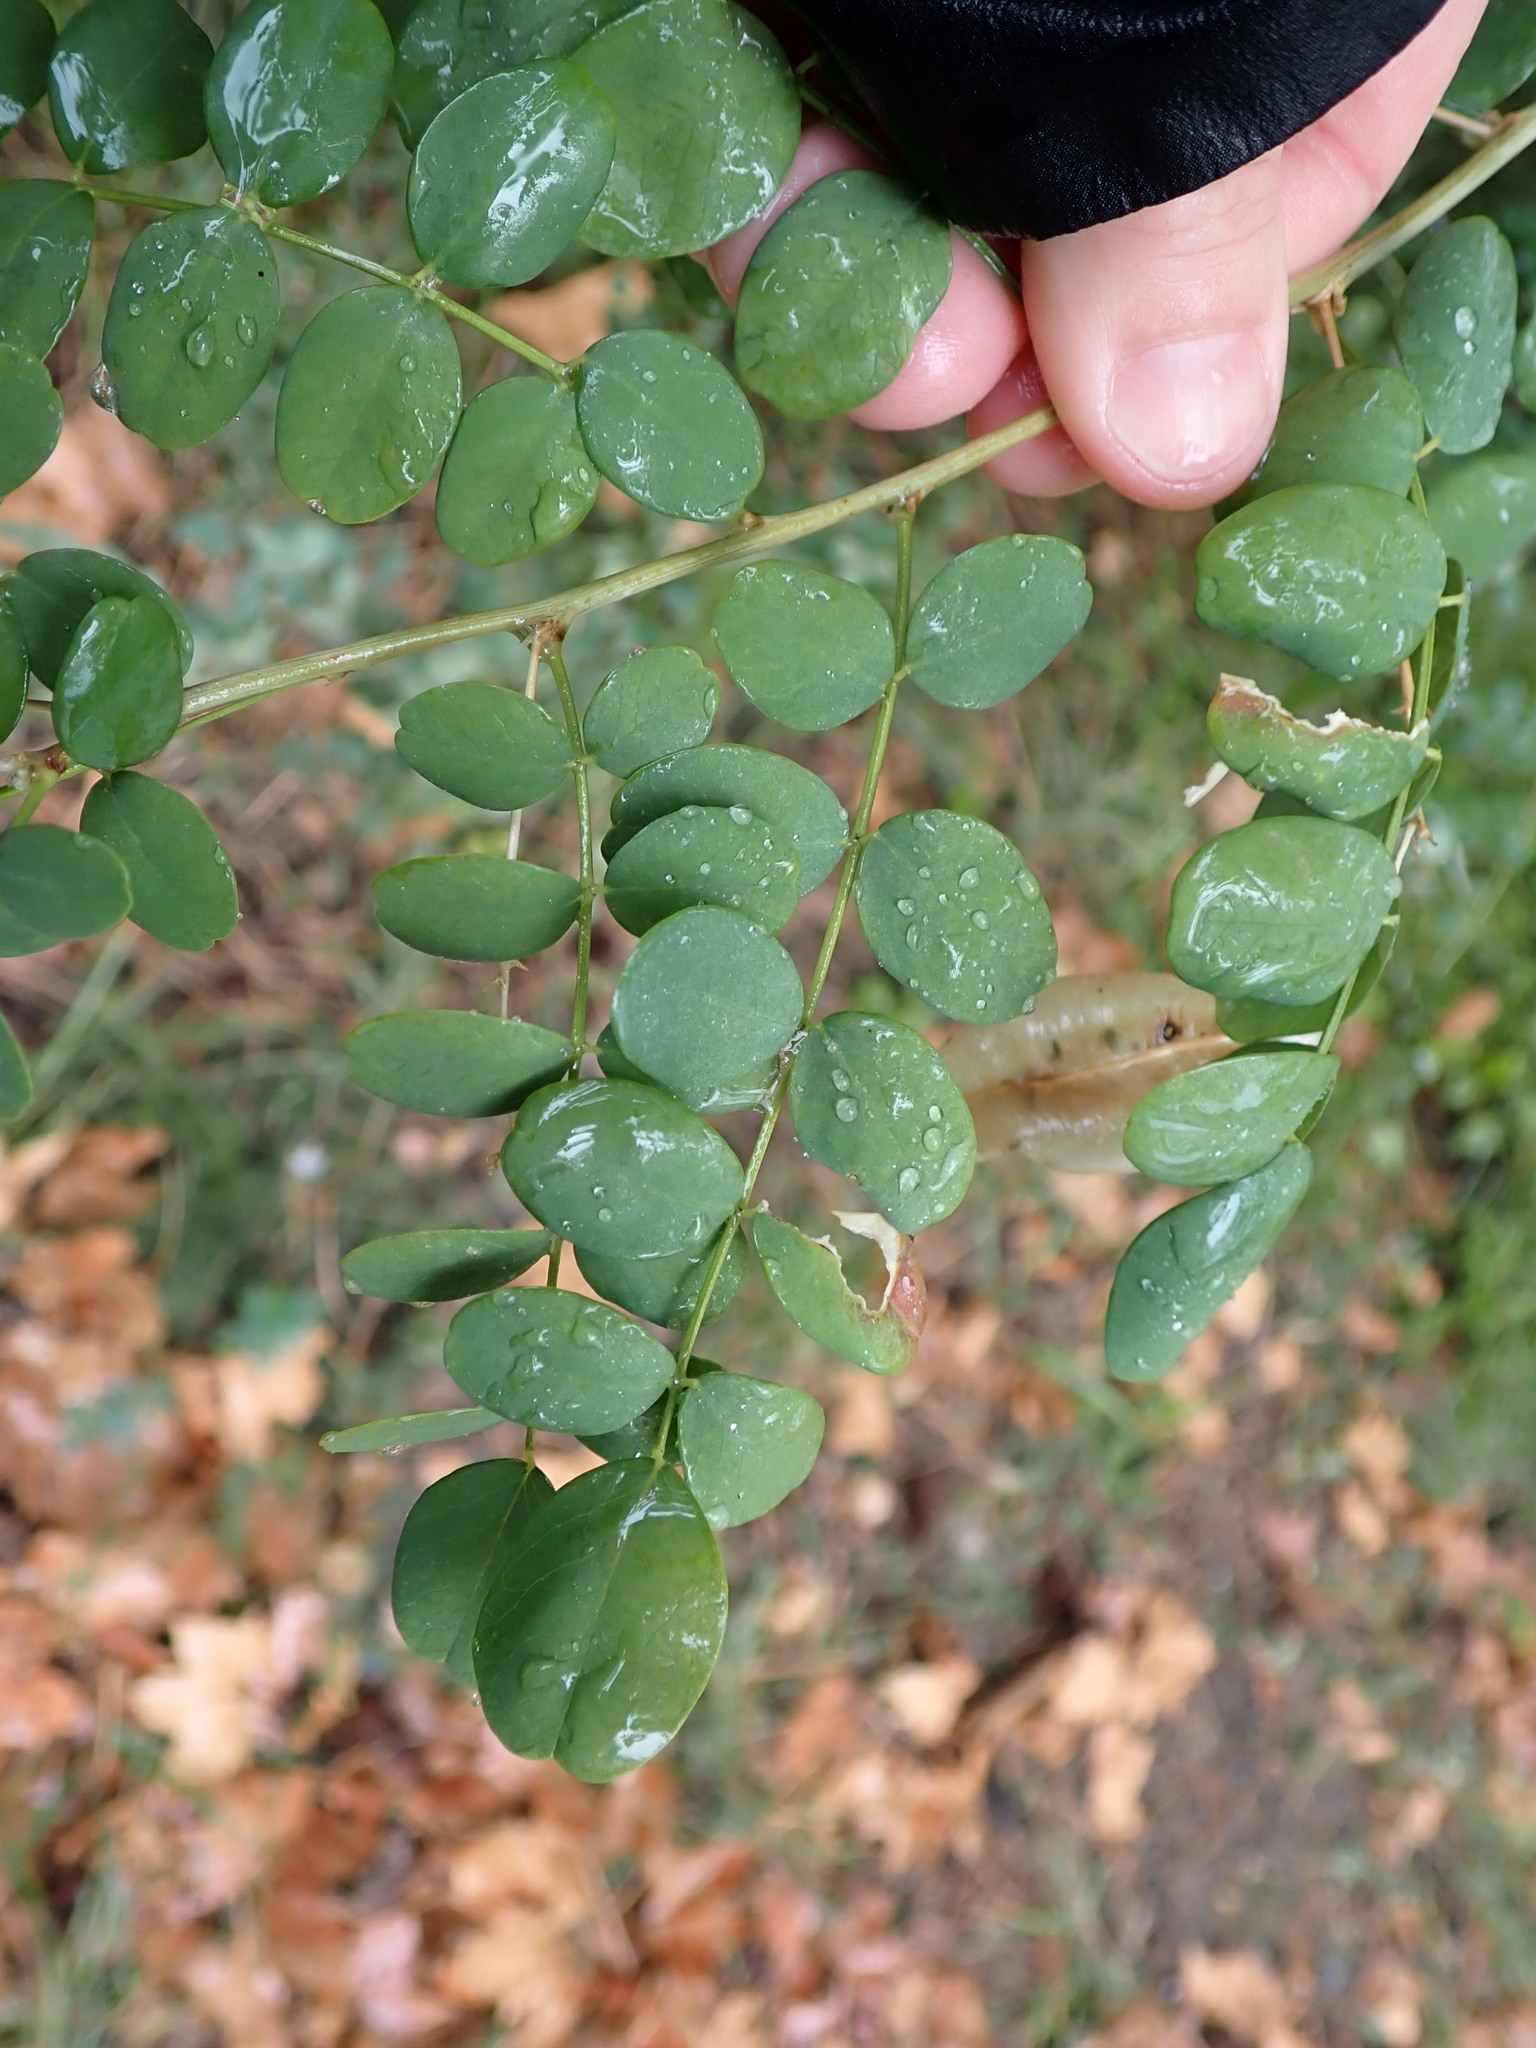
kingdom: Plantae
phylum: Tracheophyta
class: Magnoliopsida
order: Fabales
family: Fabaceae
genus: Colutea
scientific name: Colutea arborescens
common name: Bladder-senna
